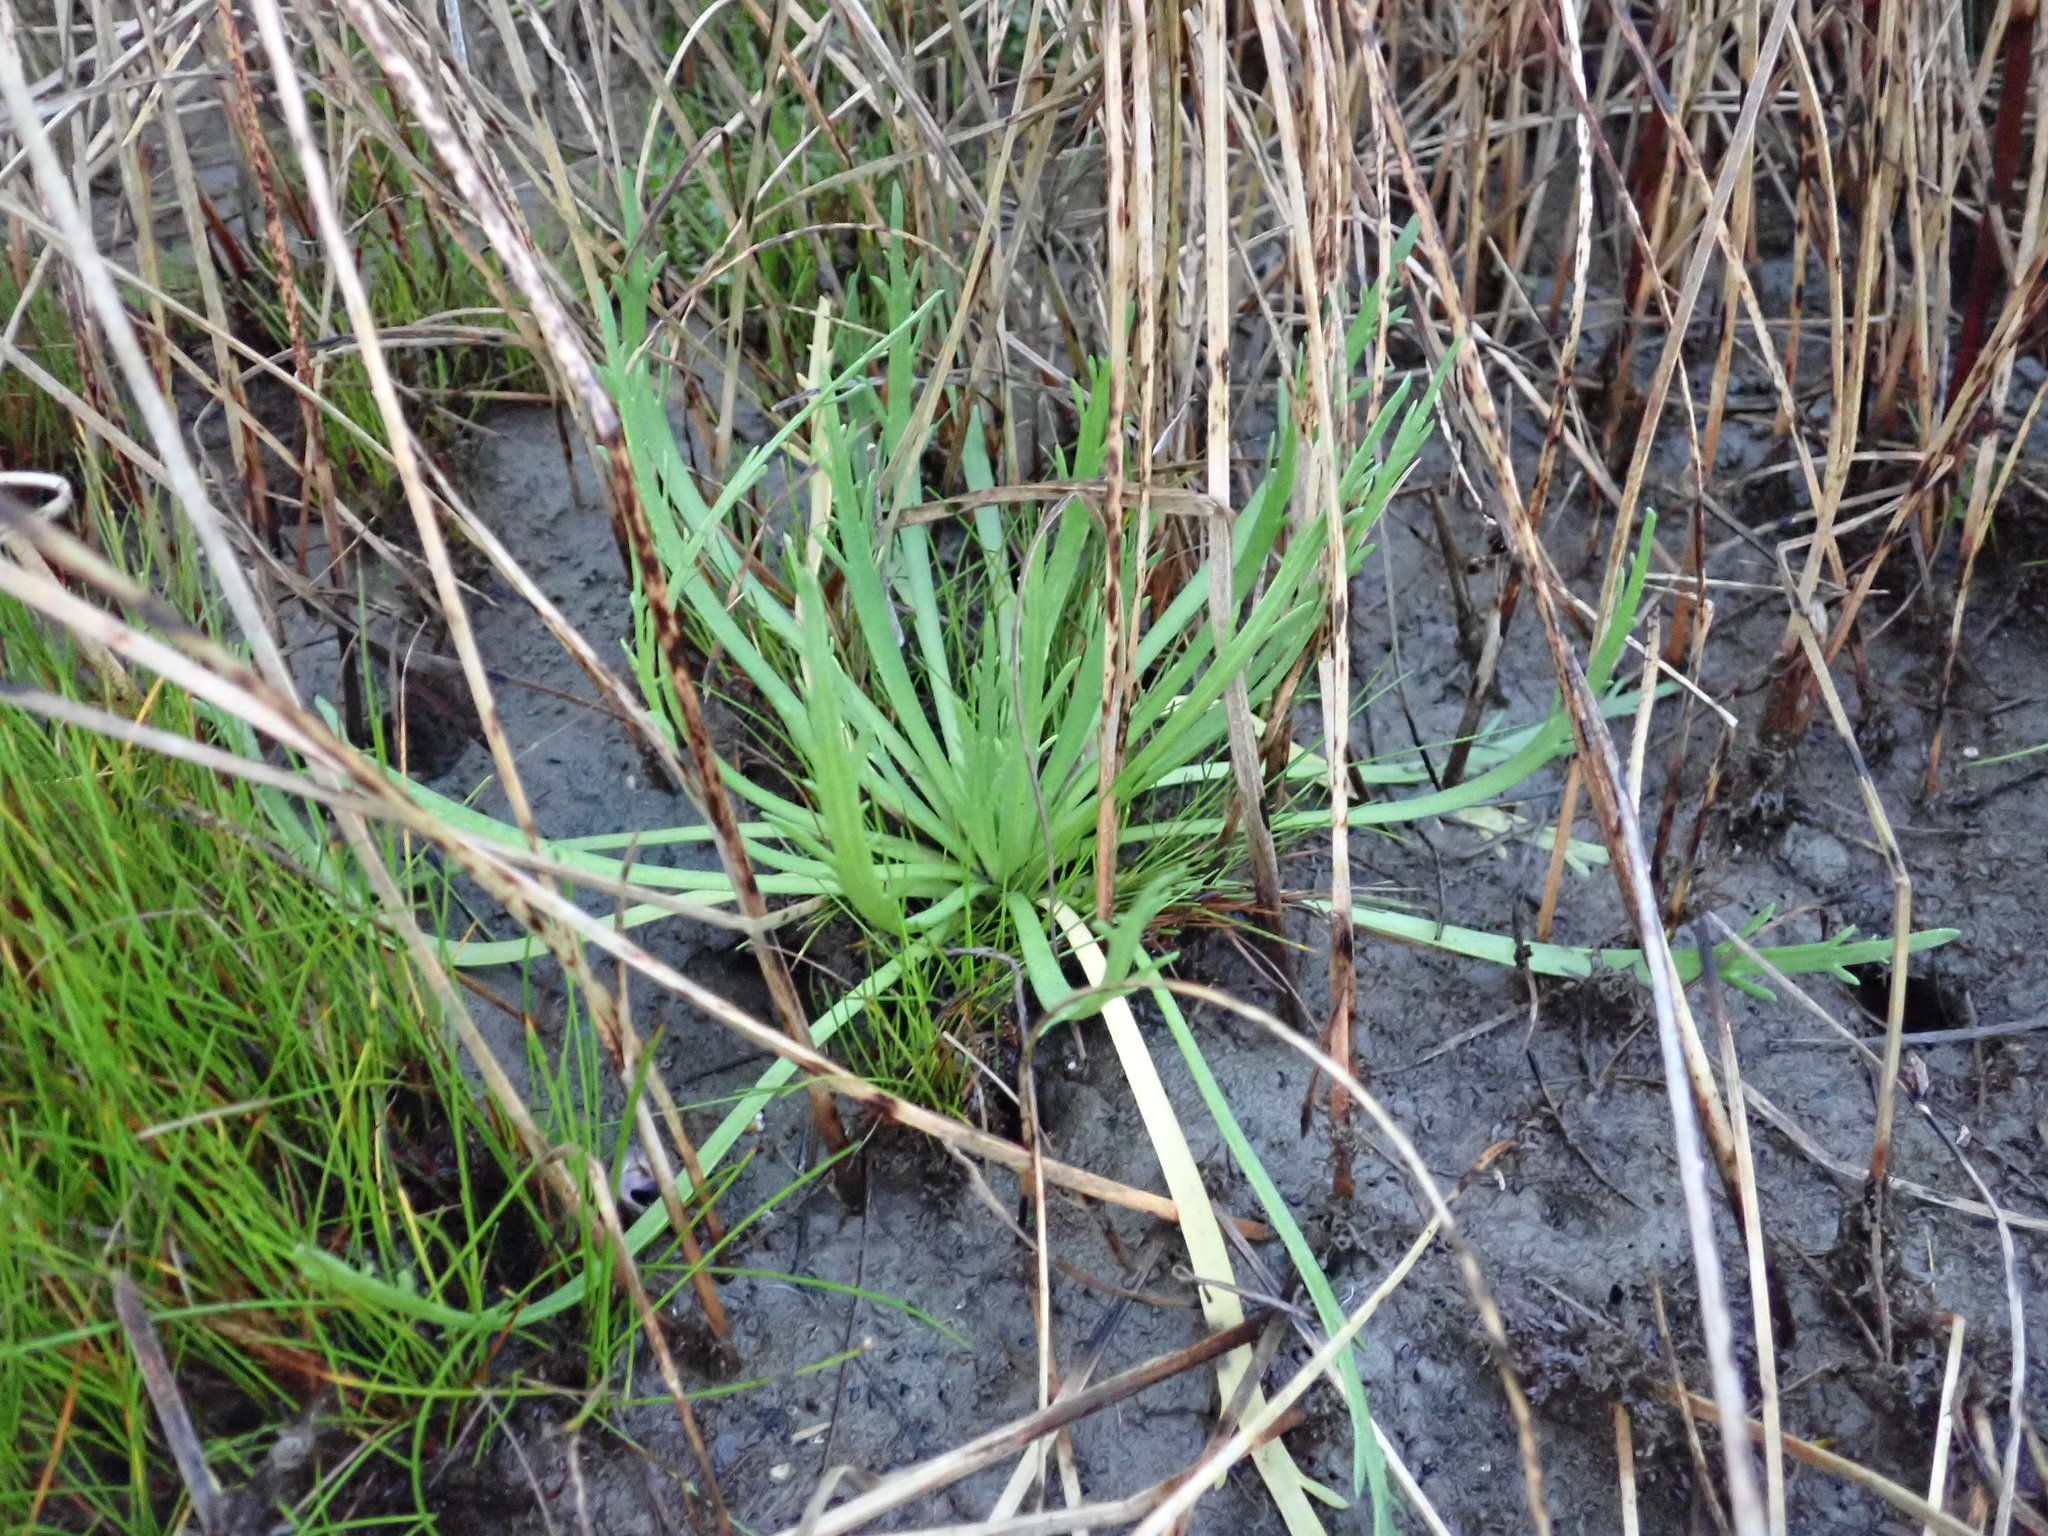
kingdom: Plantae
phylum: Tracheophyta
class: Magnoliopsida
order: Lamiales
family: Plantaginaceae
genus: Plantago
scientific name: Plantago coronopus
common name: Buck's-horn plantain
